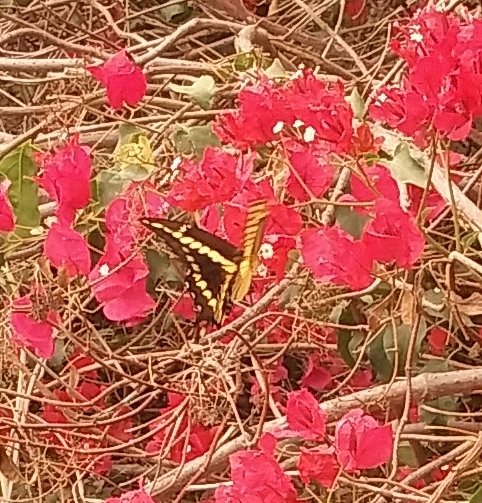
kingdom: Animalia
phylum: Arthropoda
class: Insecta
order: Lepidoptera
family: Papilionidae
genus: Papilio
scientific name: Papilio rumiko
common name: Western giant swallowtail
